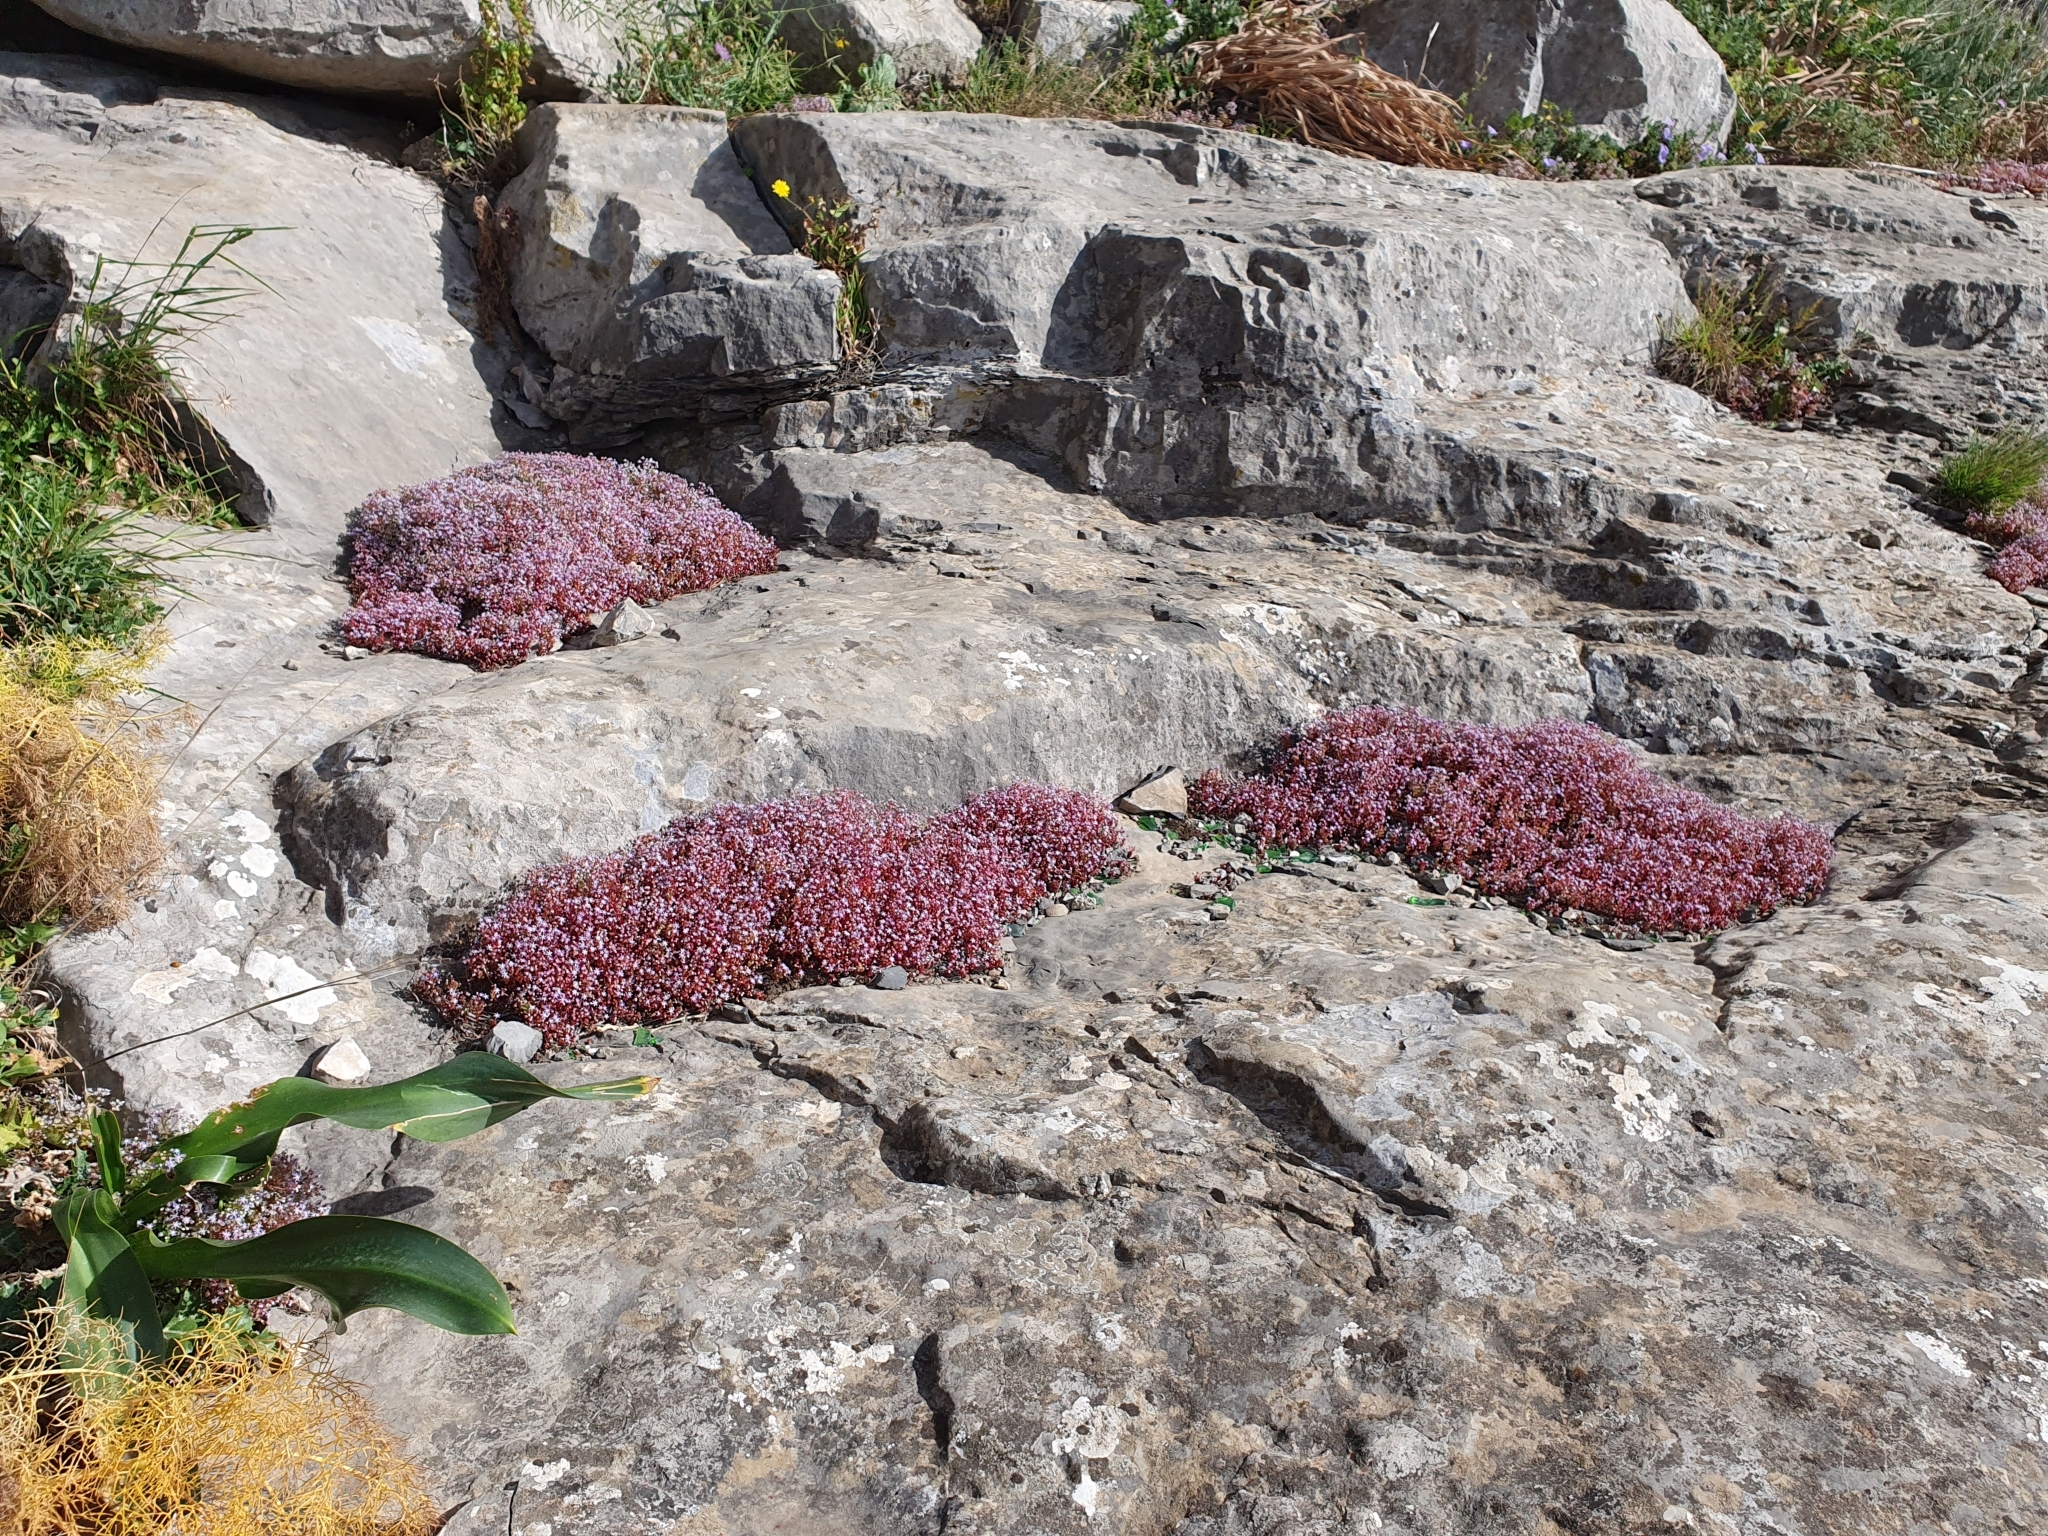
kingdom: Plantae
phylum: Tracheophyta
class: Magnoliopsida
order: Saxifragales
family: Crassulaceae
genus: Sedum
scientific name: Sedum caeruleum
